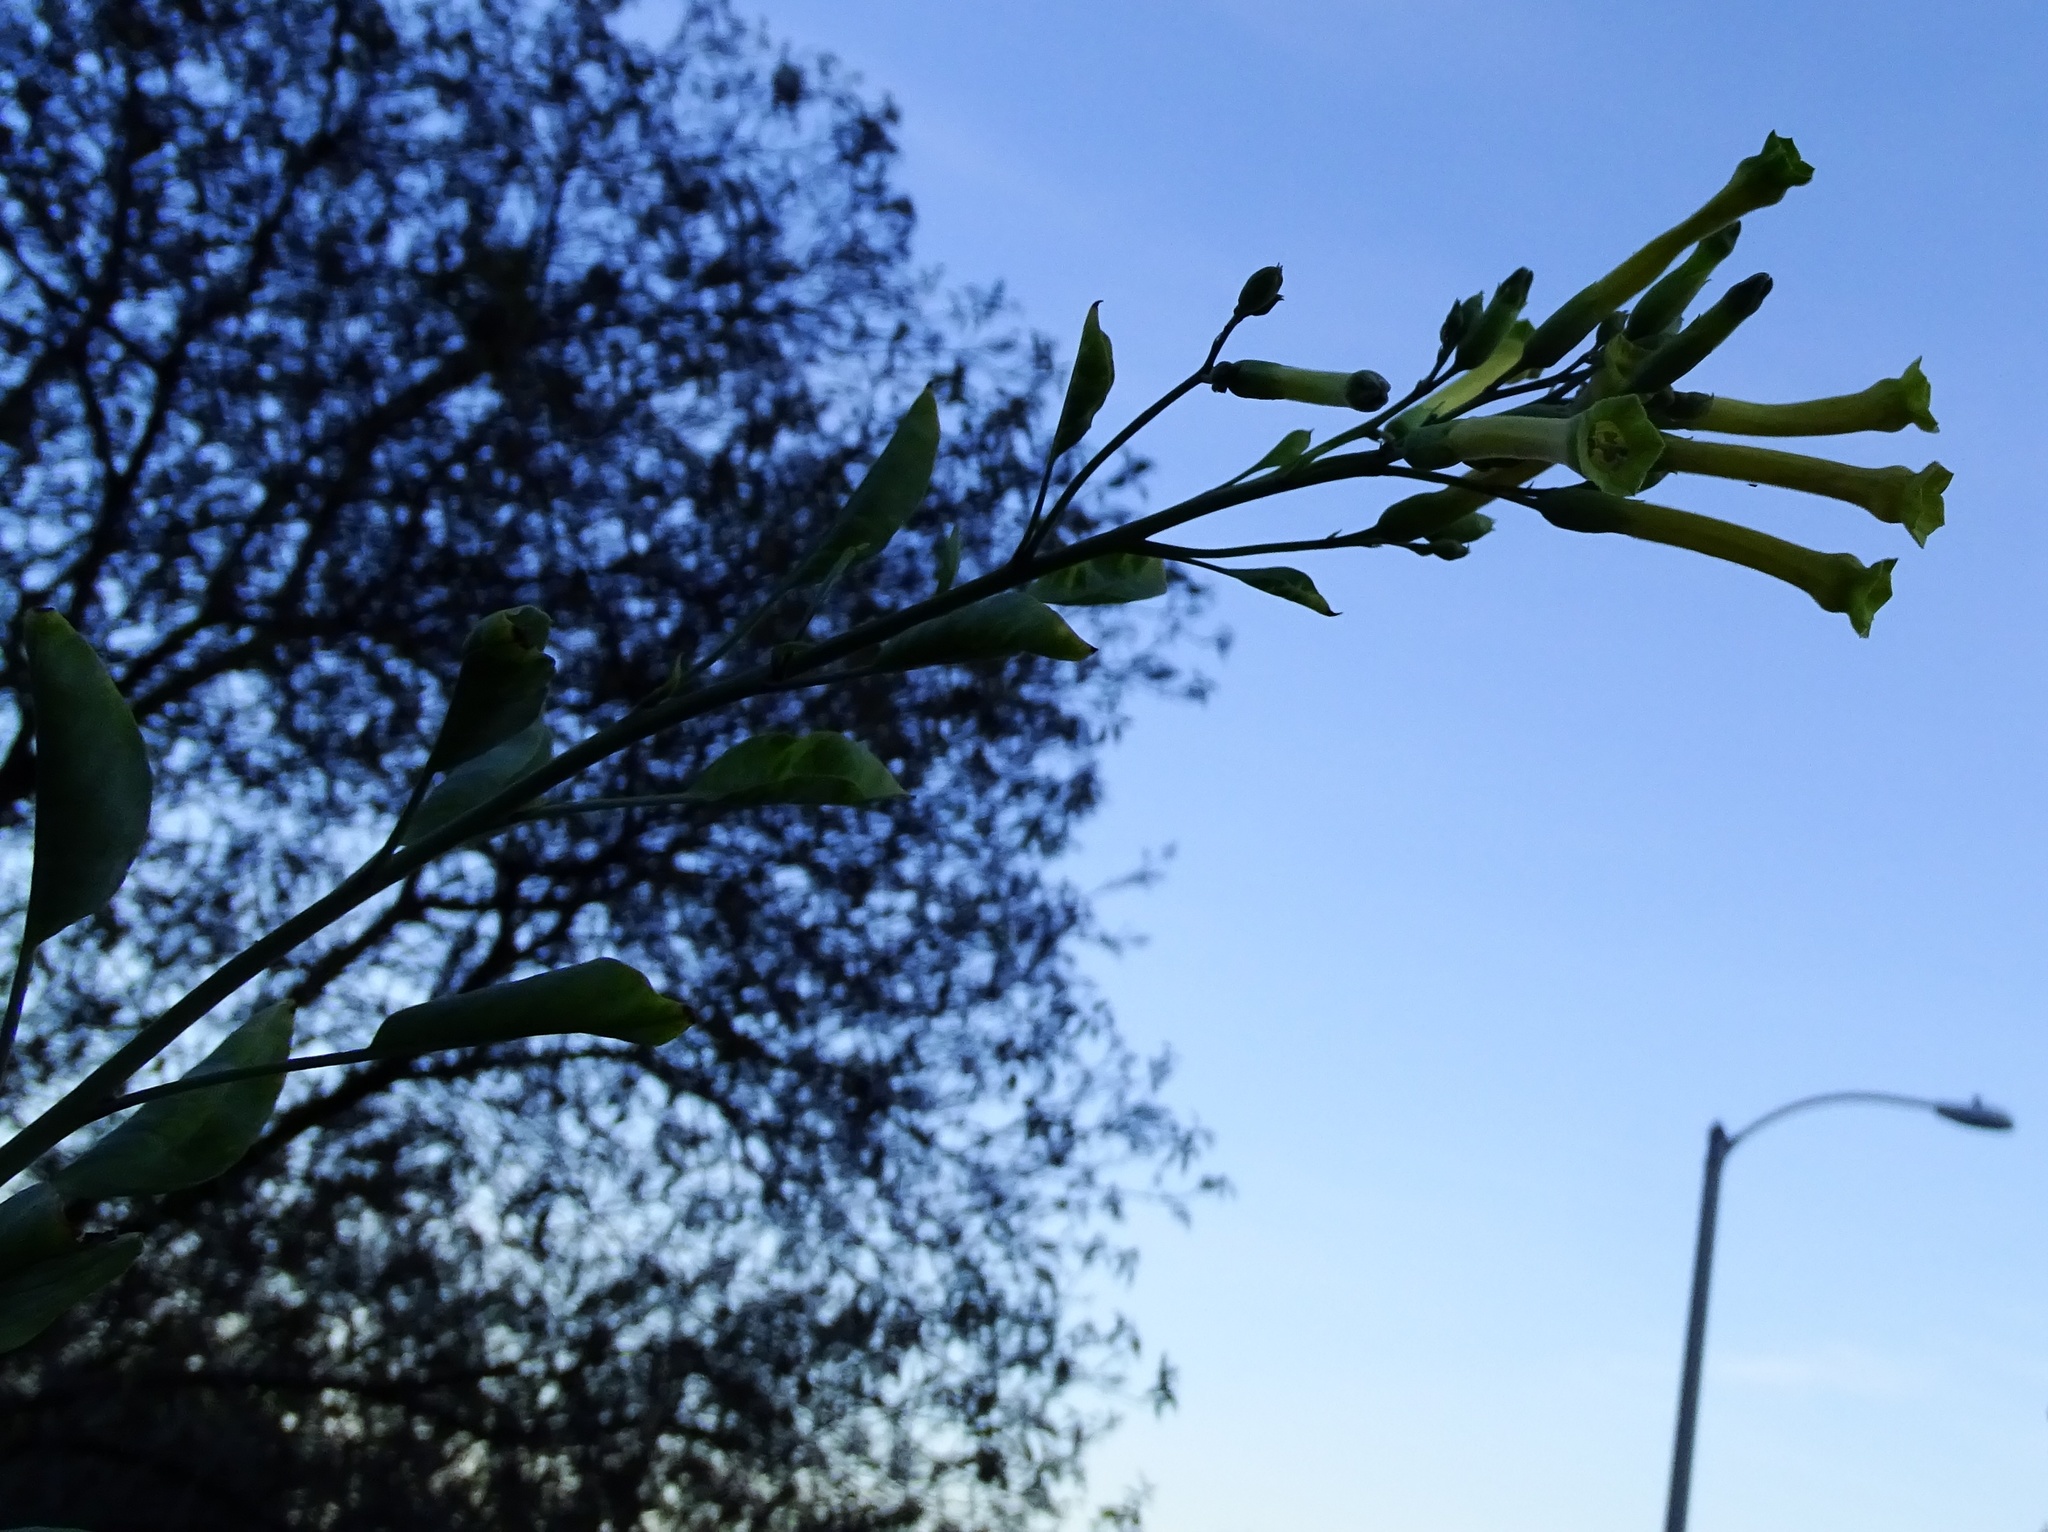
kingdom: Plantae
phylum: Tracheophyta
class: Magnoliopsida
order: Solanales
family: Solanaceae
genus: Nicotiana
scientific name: Nicotiana glauca
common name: Tree tobacco
